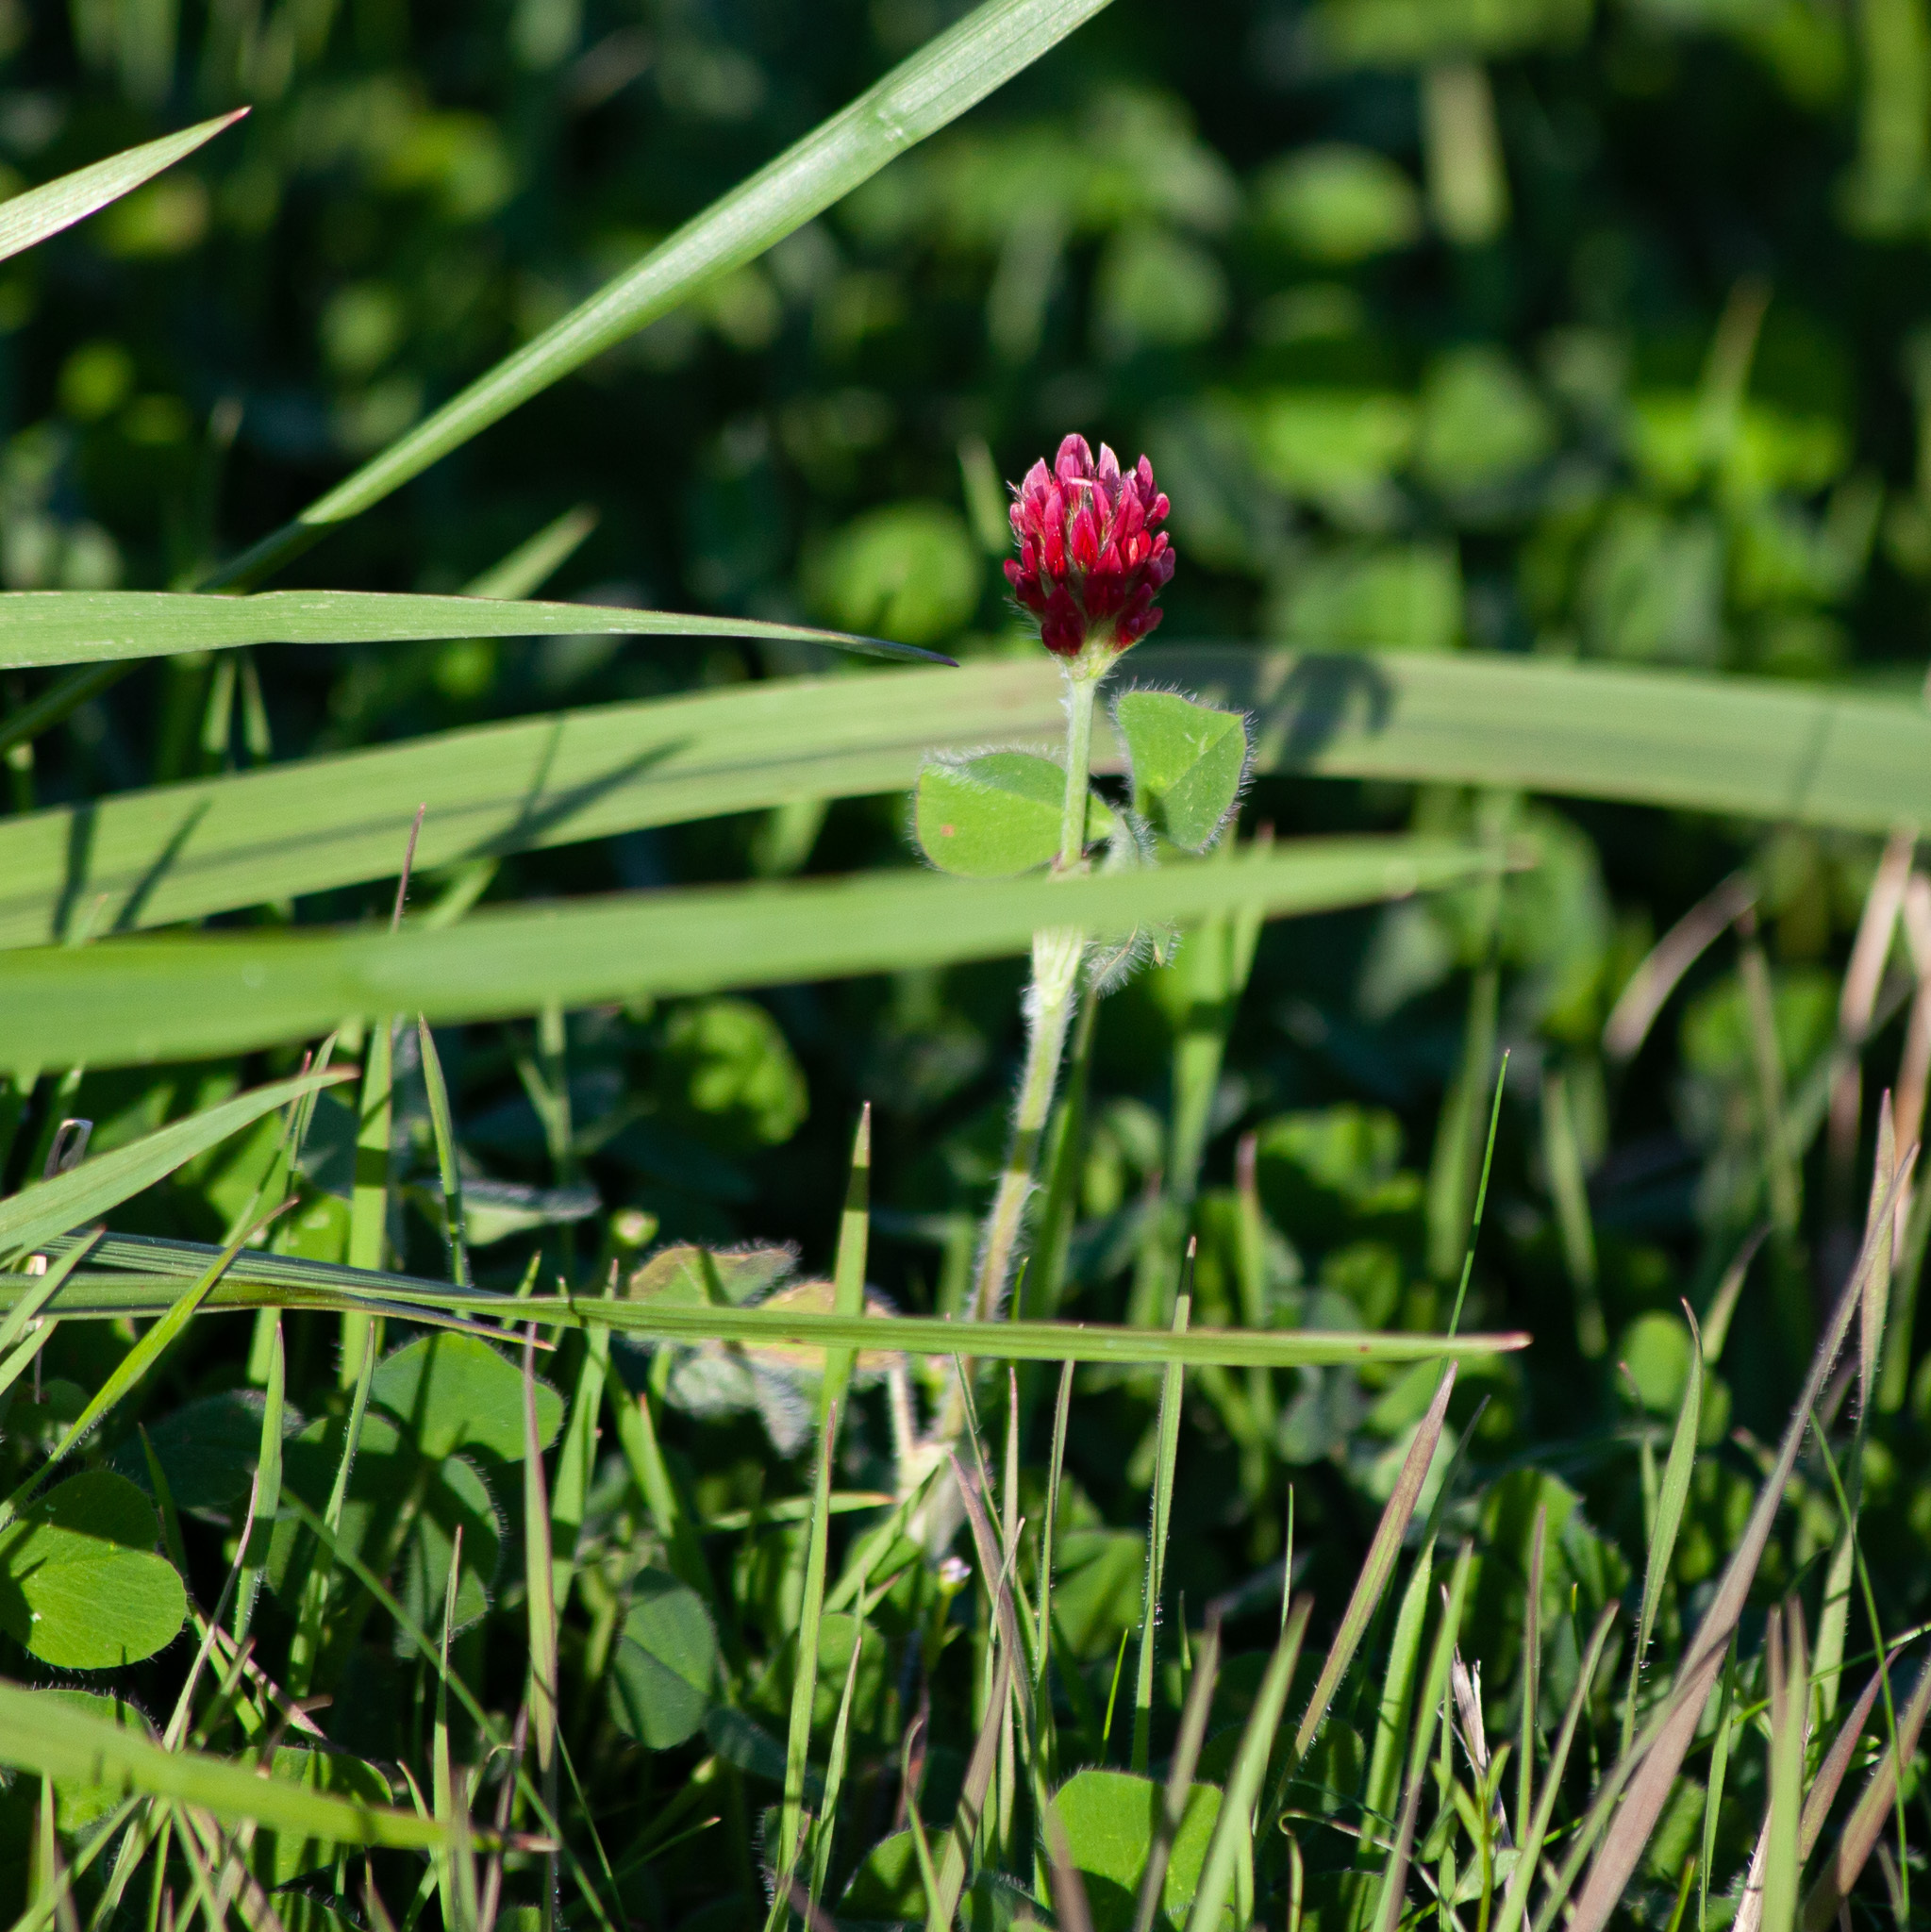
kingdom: Plantae
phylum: Tracheophyta
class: Magnoliopsida
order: Fabales
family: Fabaceae
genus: Trifolium
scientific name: Trifolium incarnatum
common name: Crimson clover
